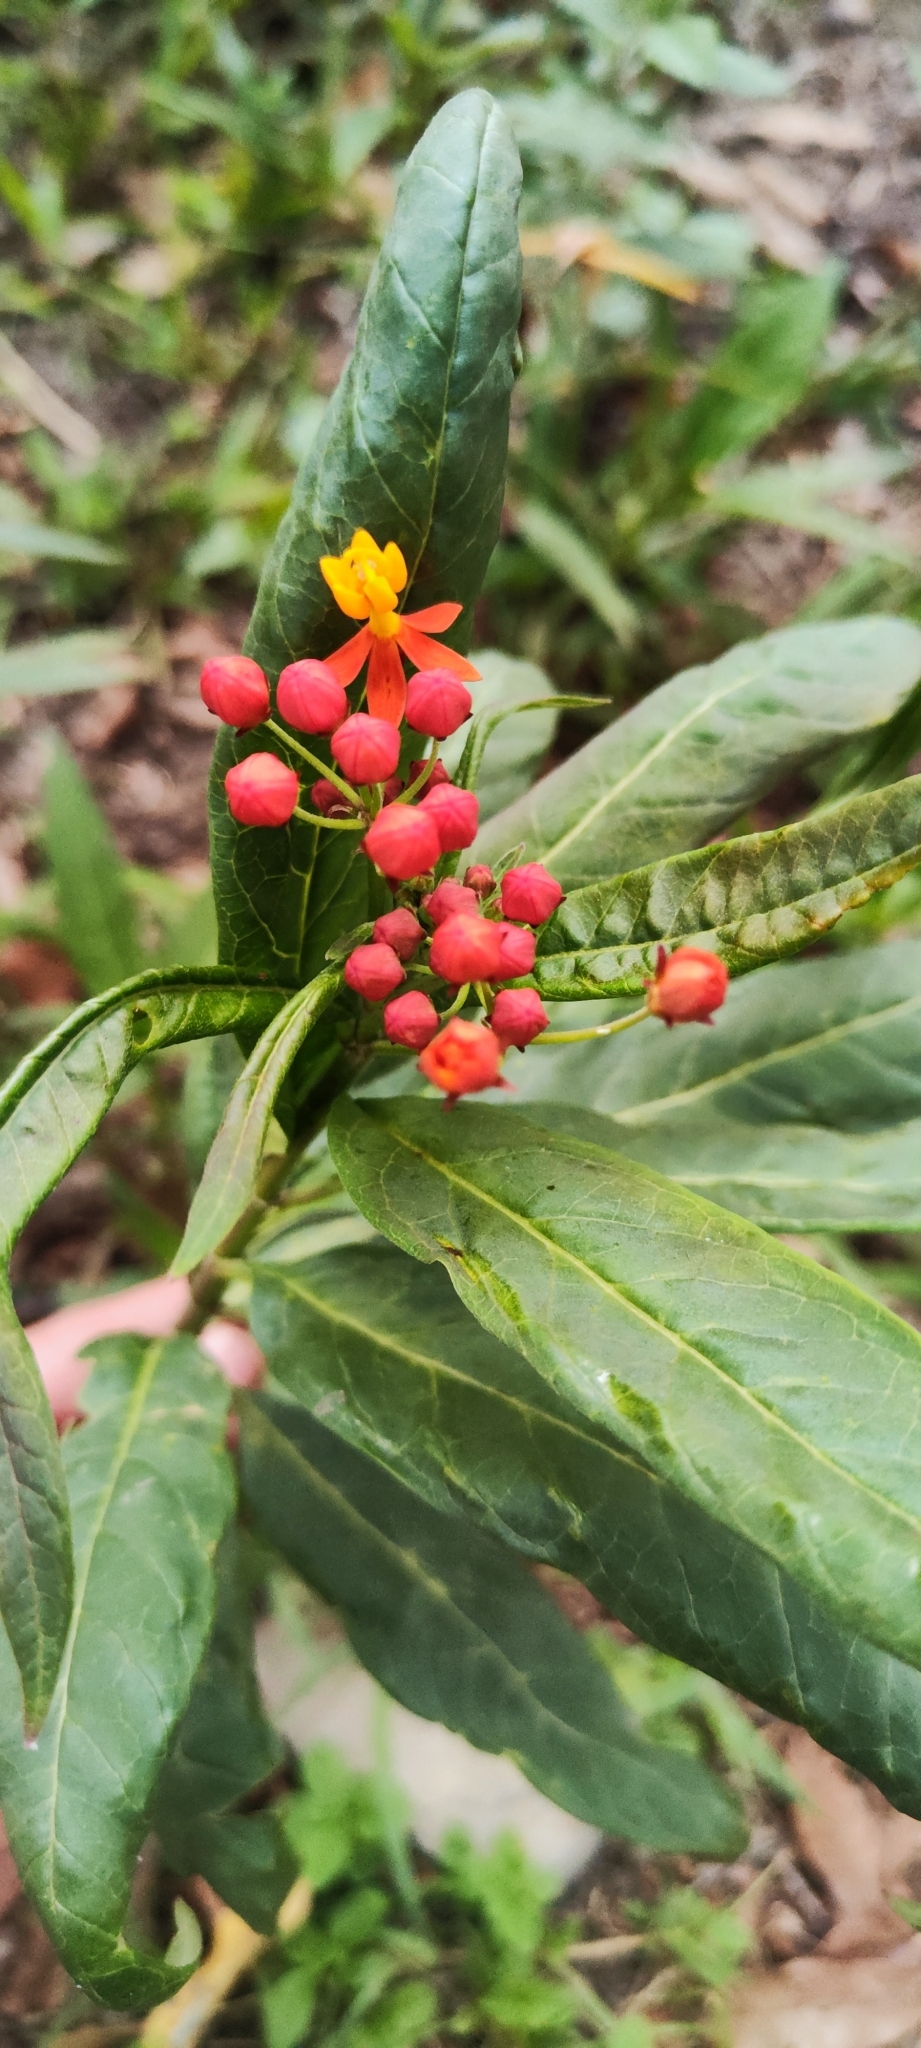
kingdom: Plantae
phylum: Tracheophyta
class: Magnoliopsida
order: Gentianales
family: Apocynaceae
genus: Asclepias
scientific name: Asclepias curassavica
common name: Bloodflower
